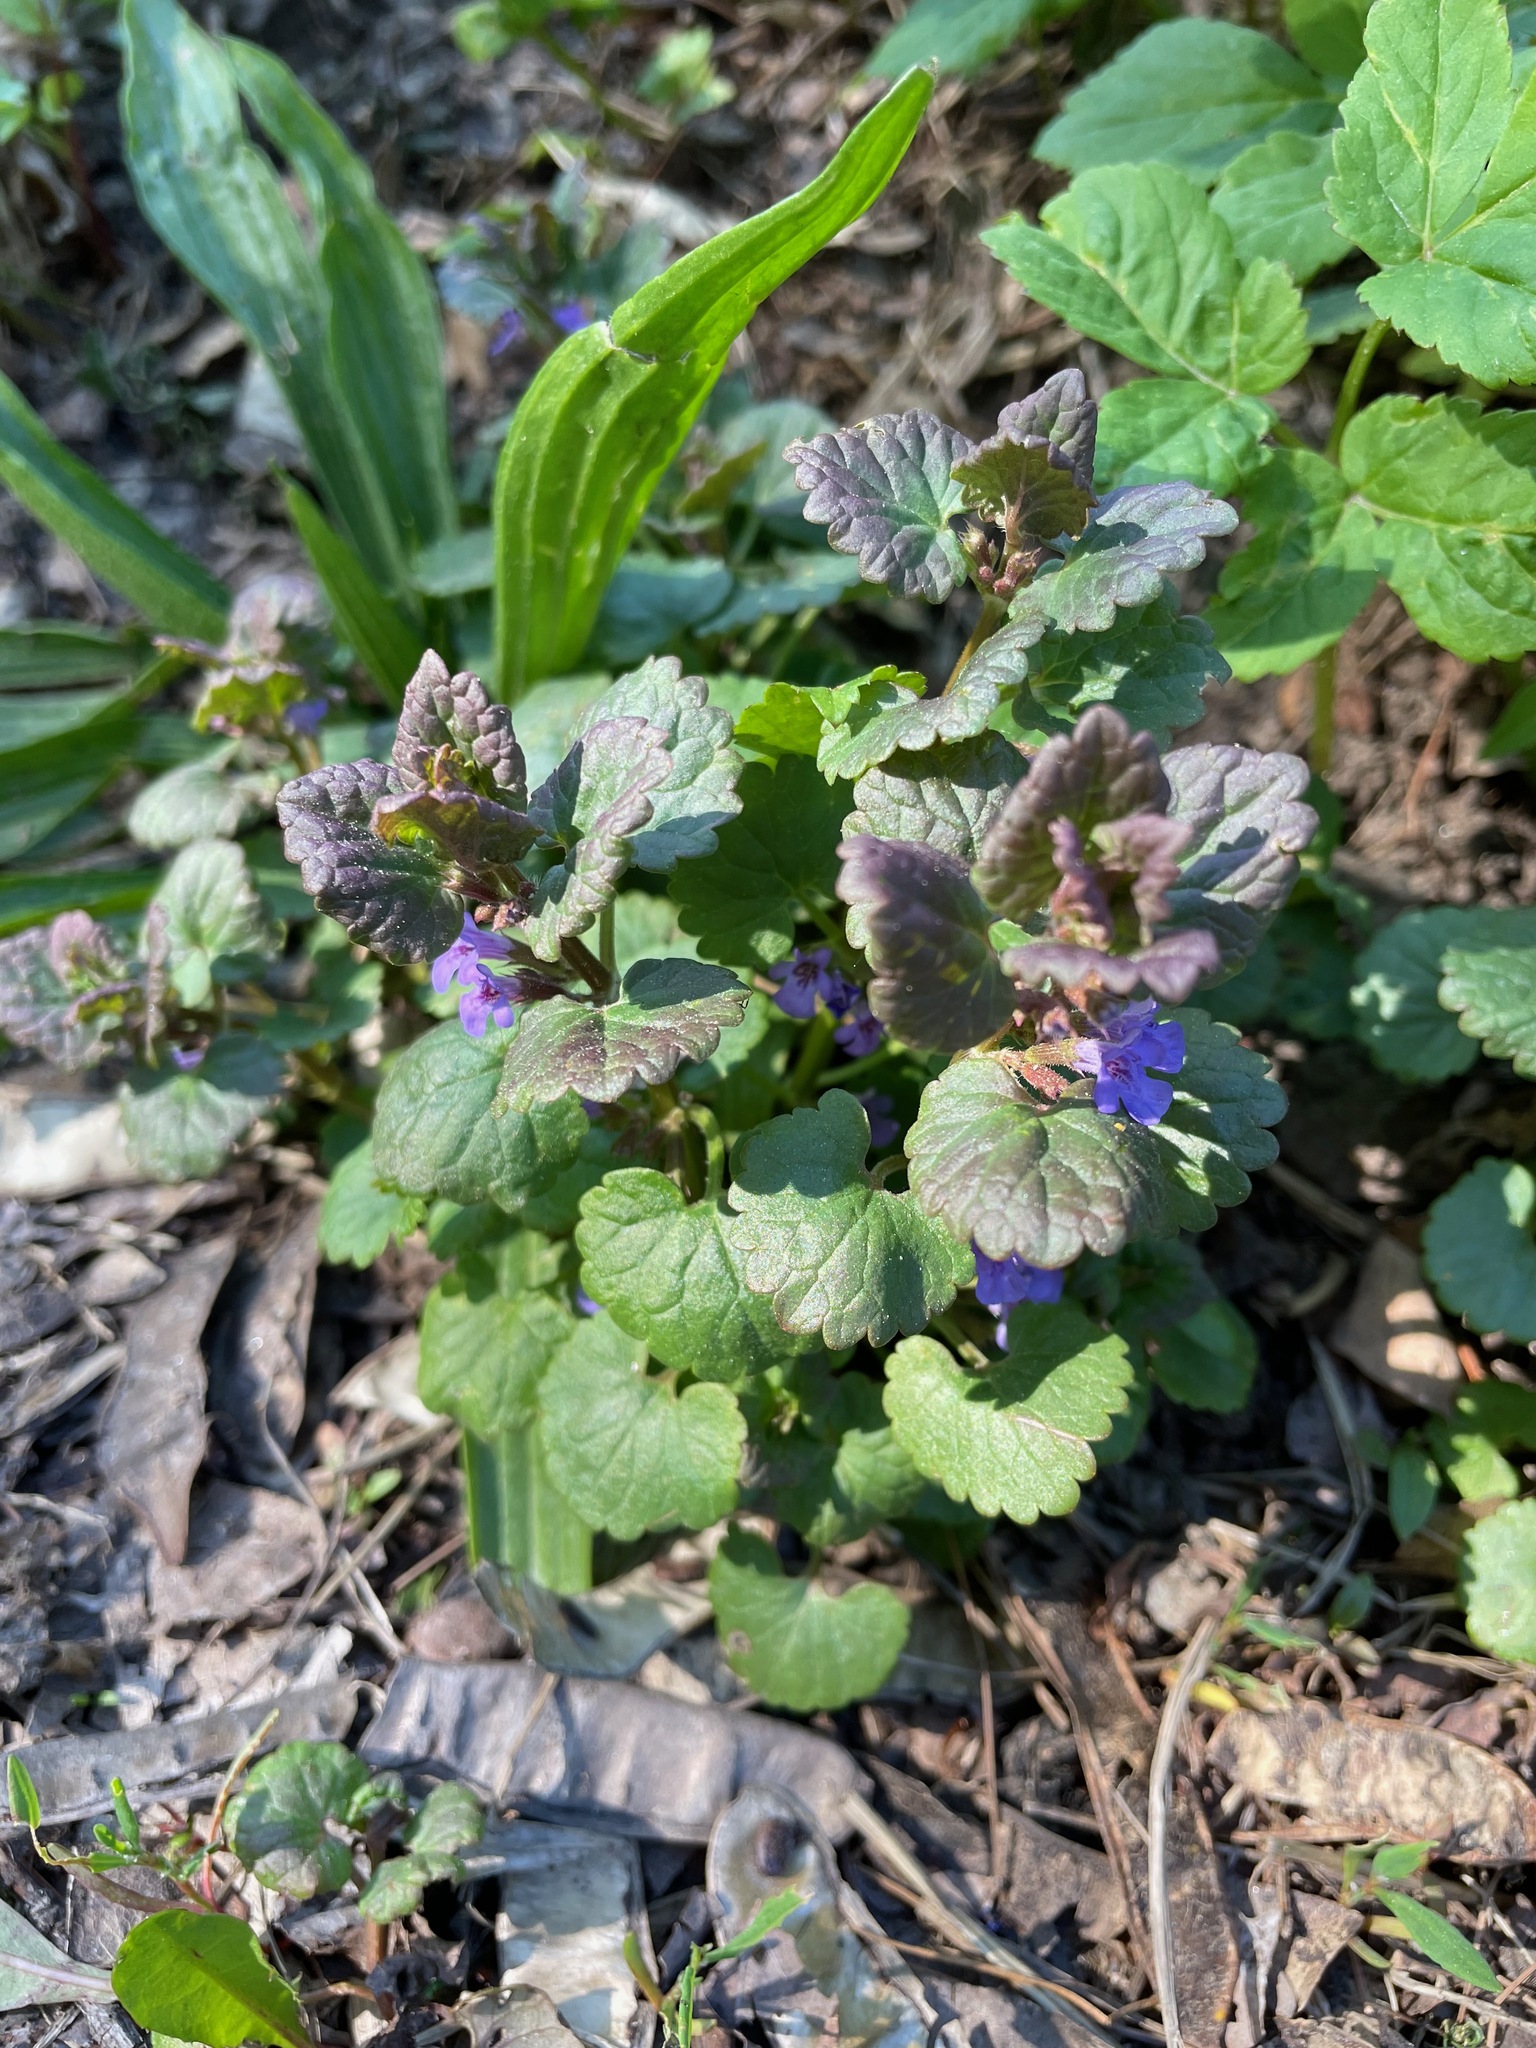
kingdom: Plantae
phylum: Tracheophyta
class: Magnoliopsida
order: Lamiales
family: Lamiaceae
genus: Glechoma
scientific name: Glechoma hederacea
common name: Ground ivy
